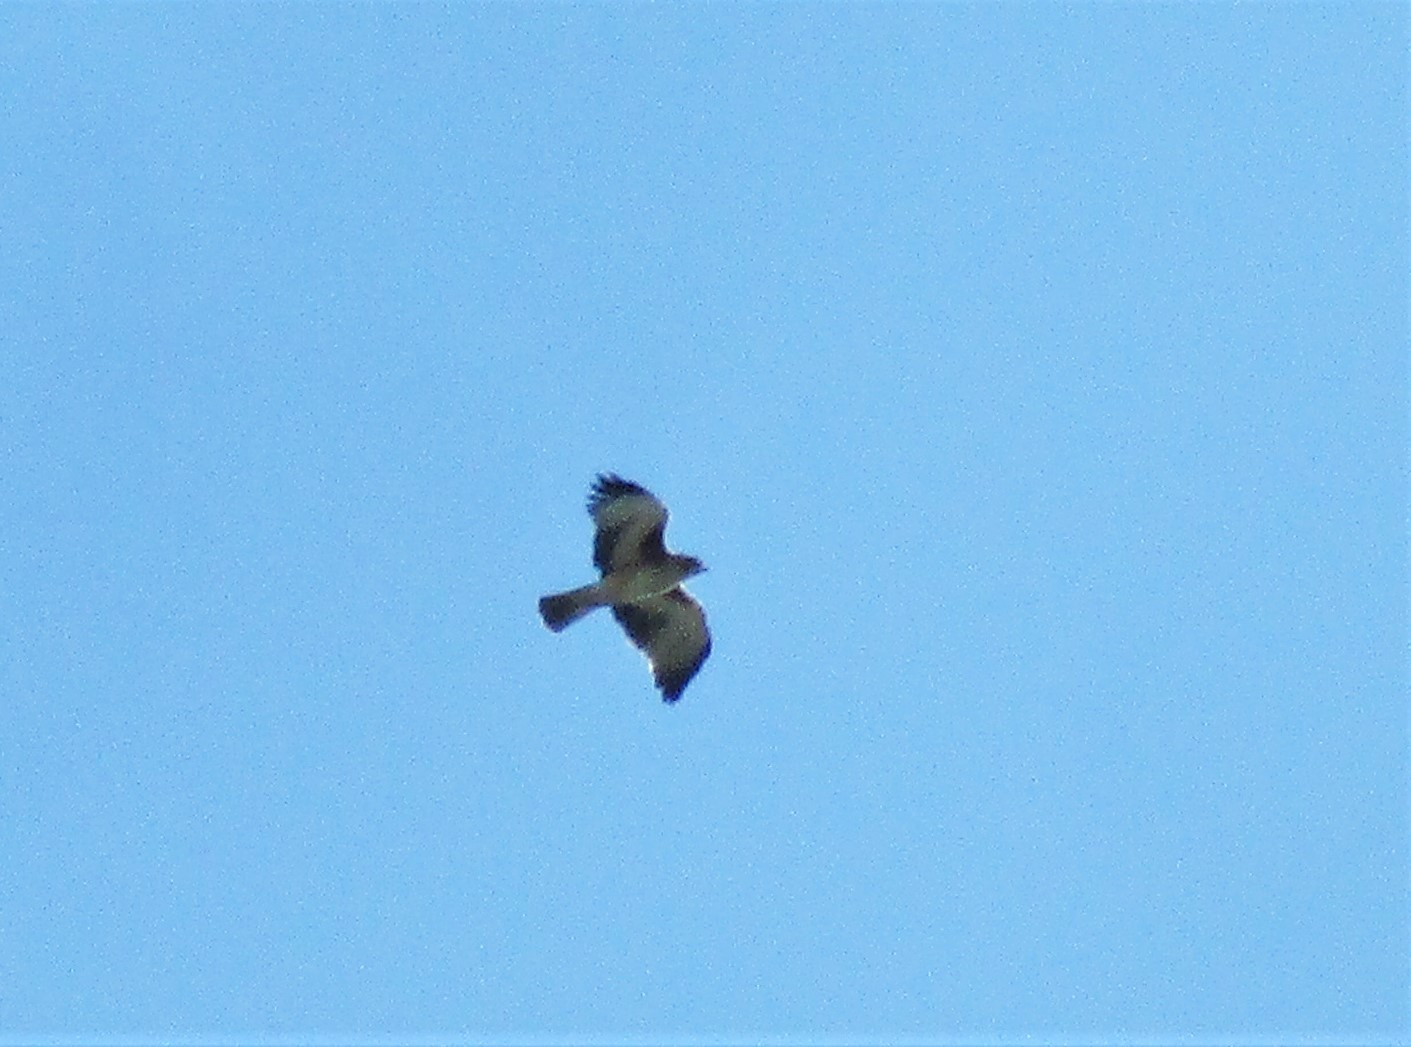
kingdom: Animalia
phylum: Chordata
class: Aves
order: Accipitriformes
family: Accipitridae
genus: Hieraaetus
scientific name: Hieraaetus morphnoides
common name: Little eagle
